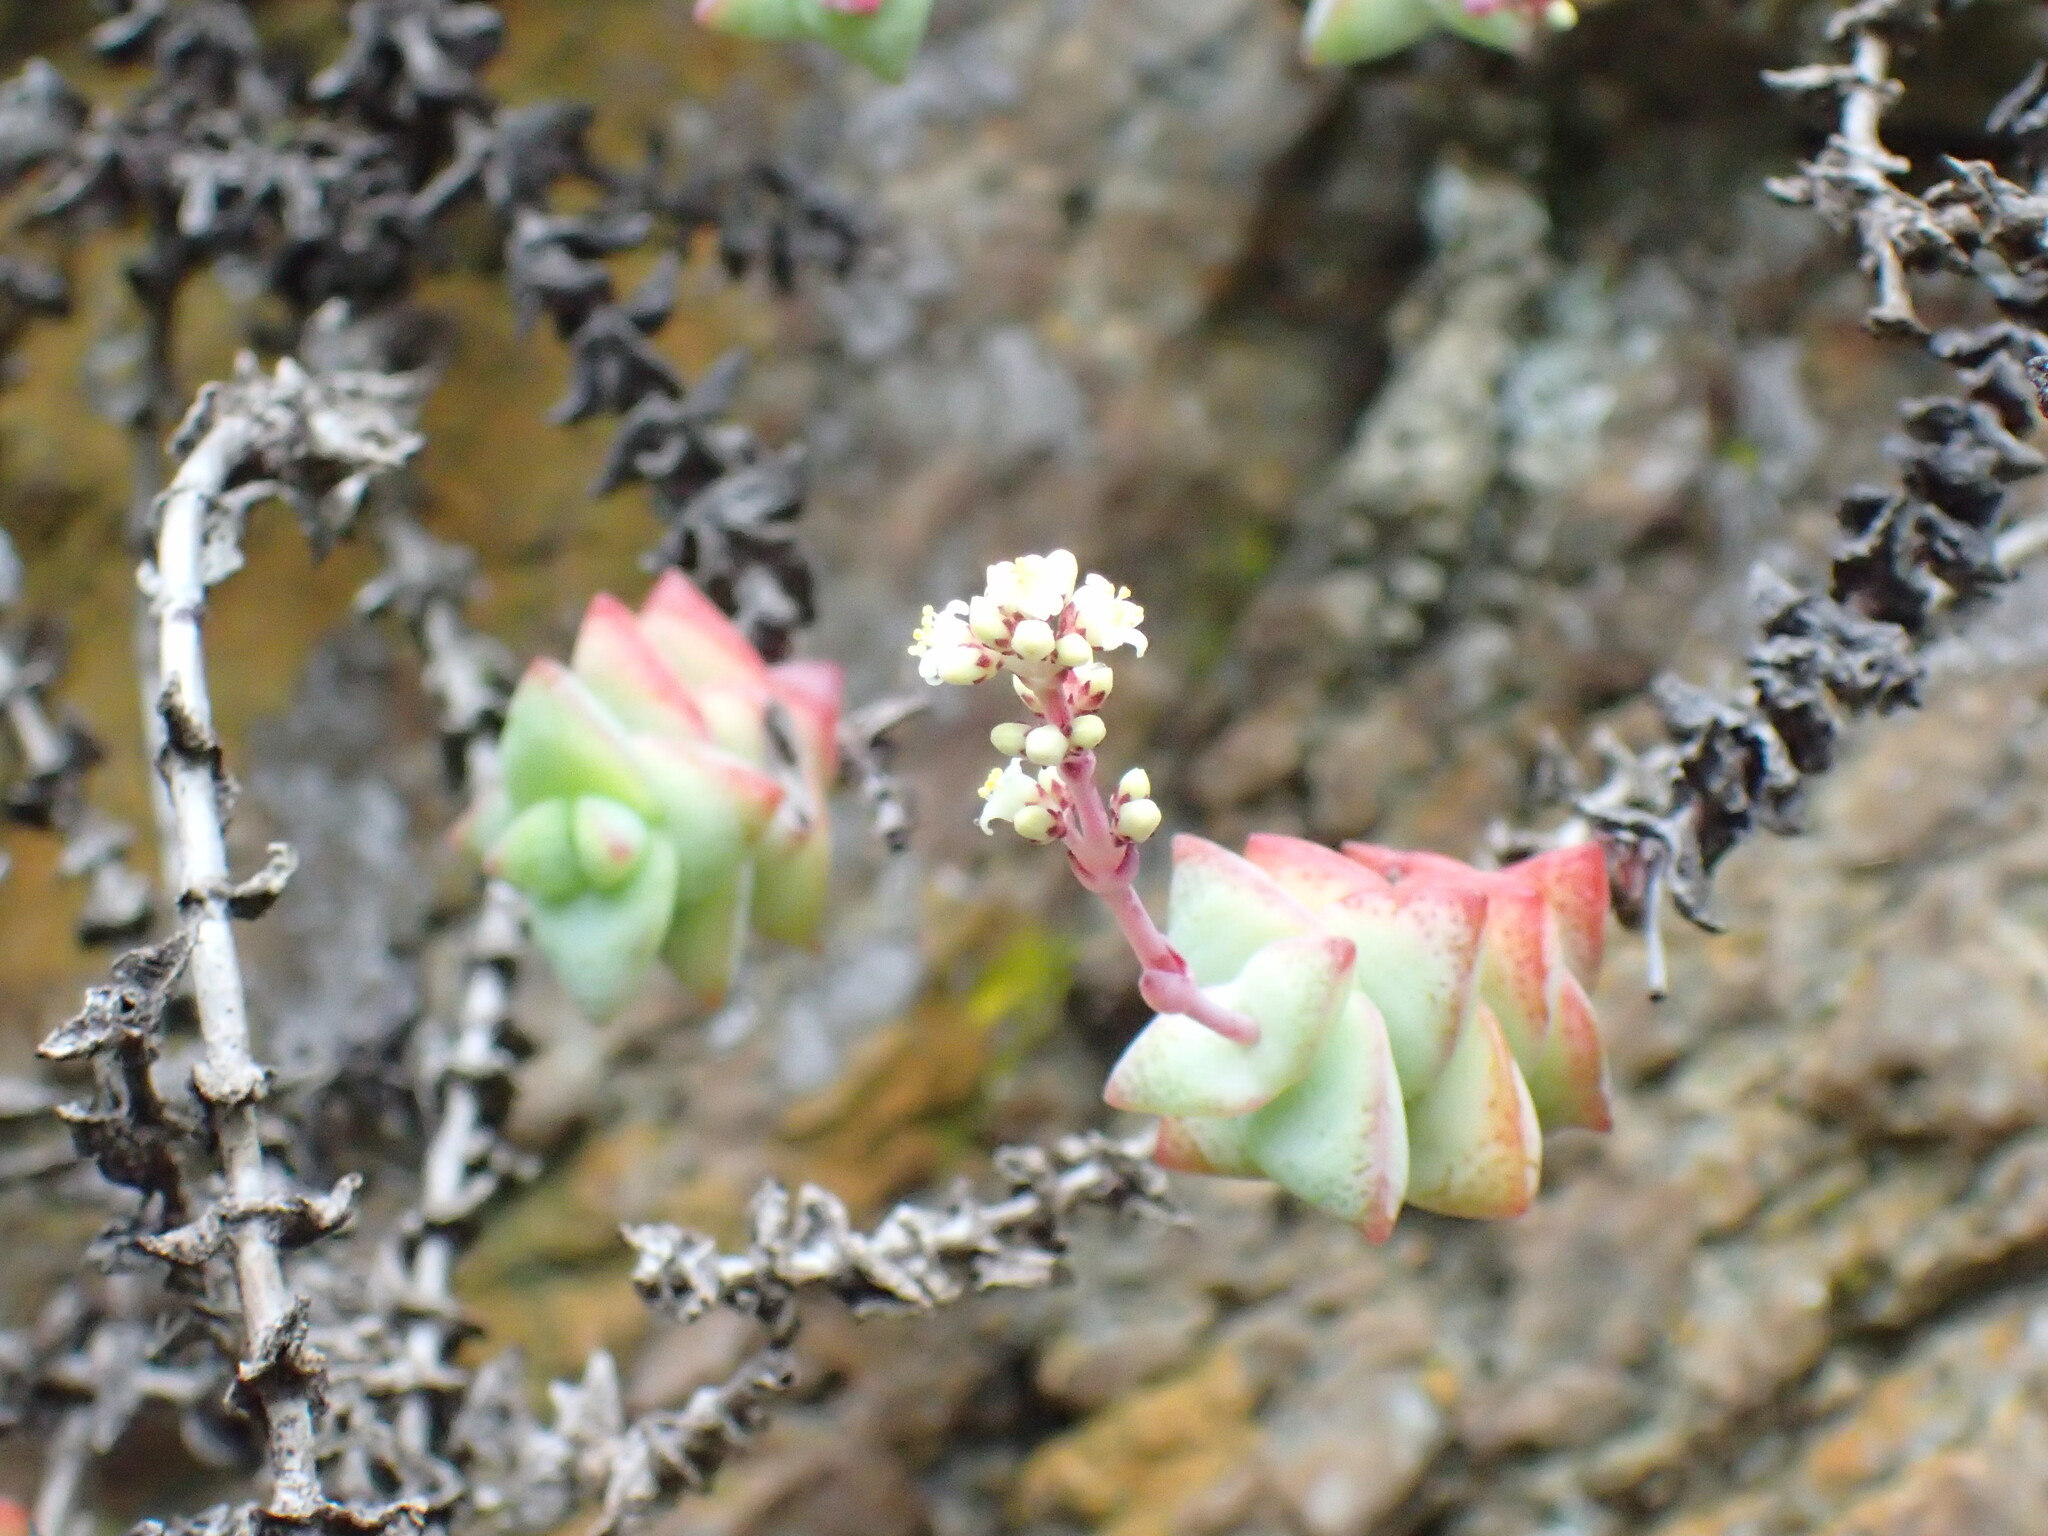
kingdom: Plantae
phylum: Tracheophyta
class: Magnoliopsida
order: Saxifragales
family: Crassulaceae
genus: Crassula
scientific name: Crassula perforata
